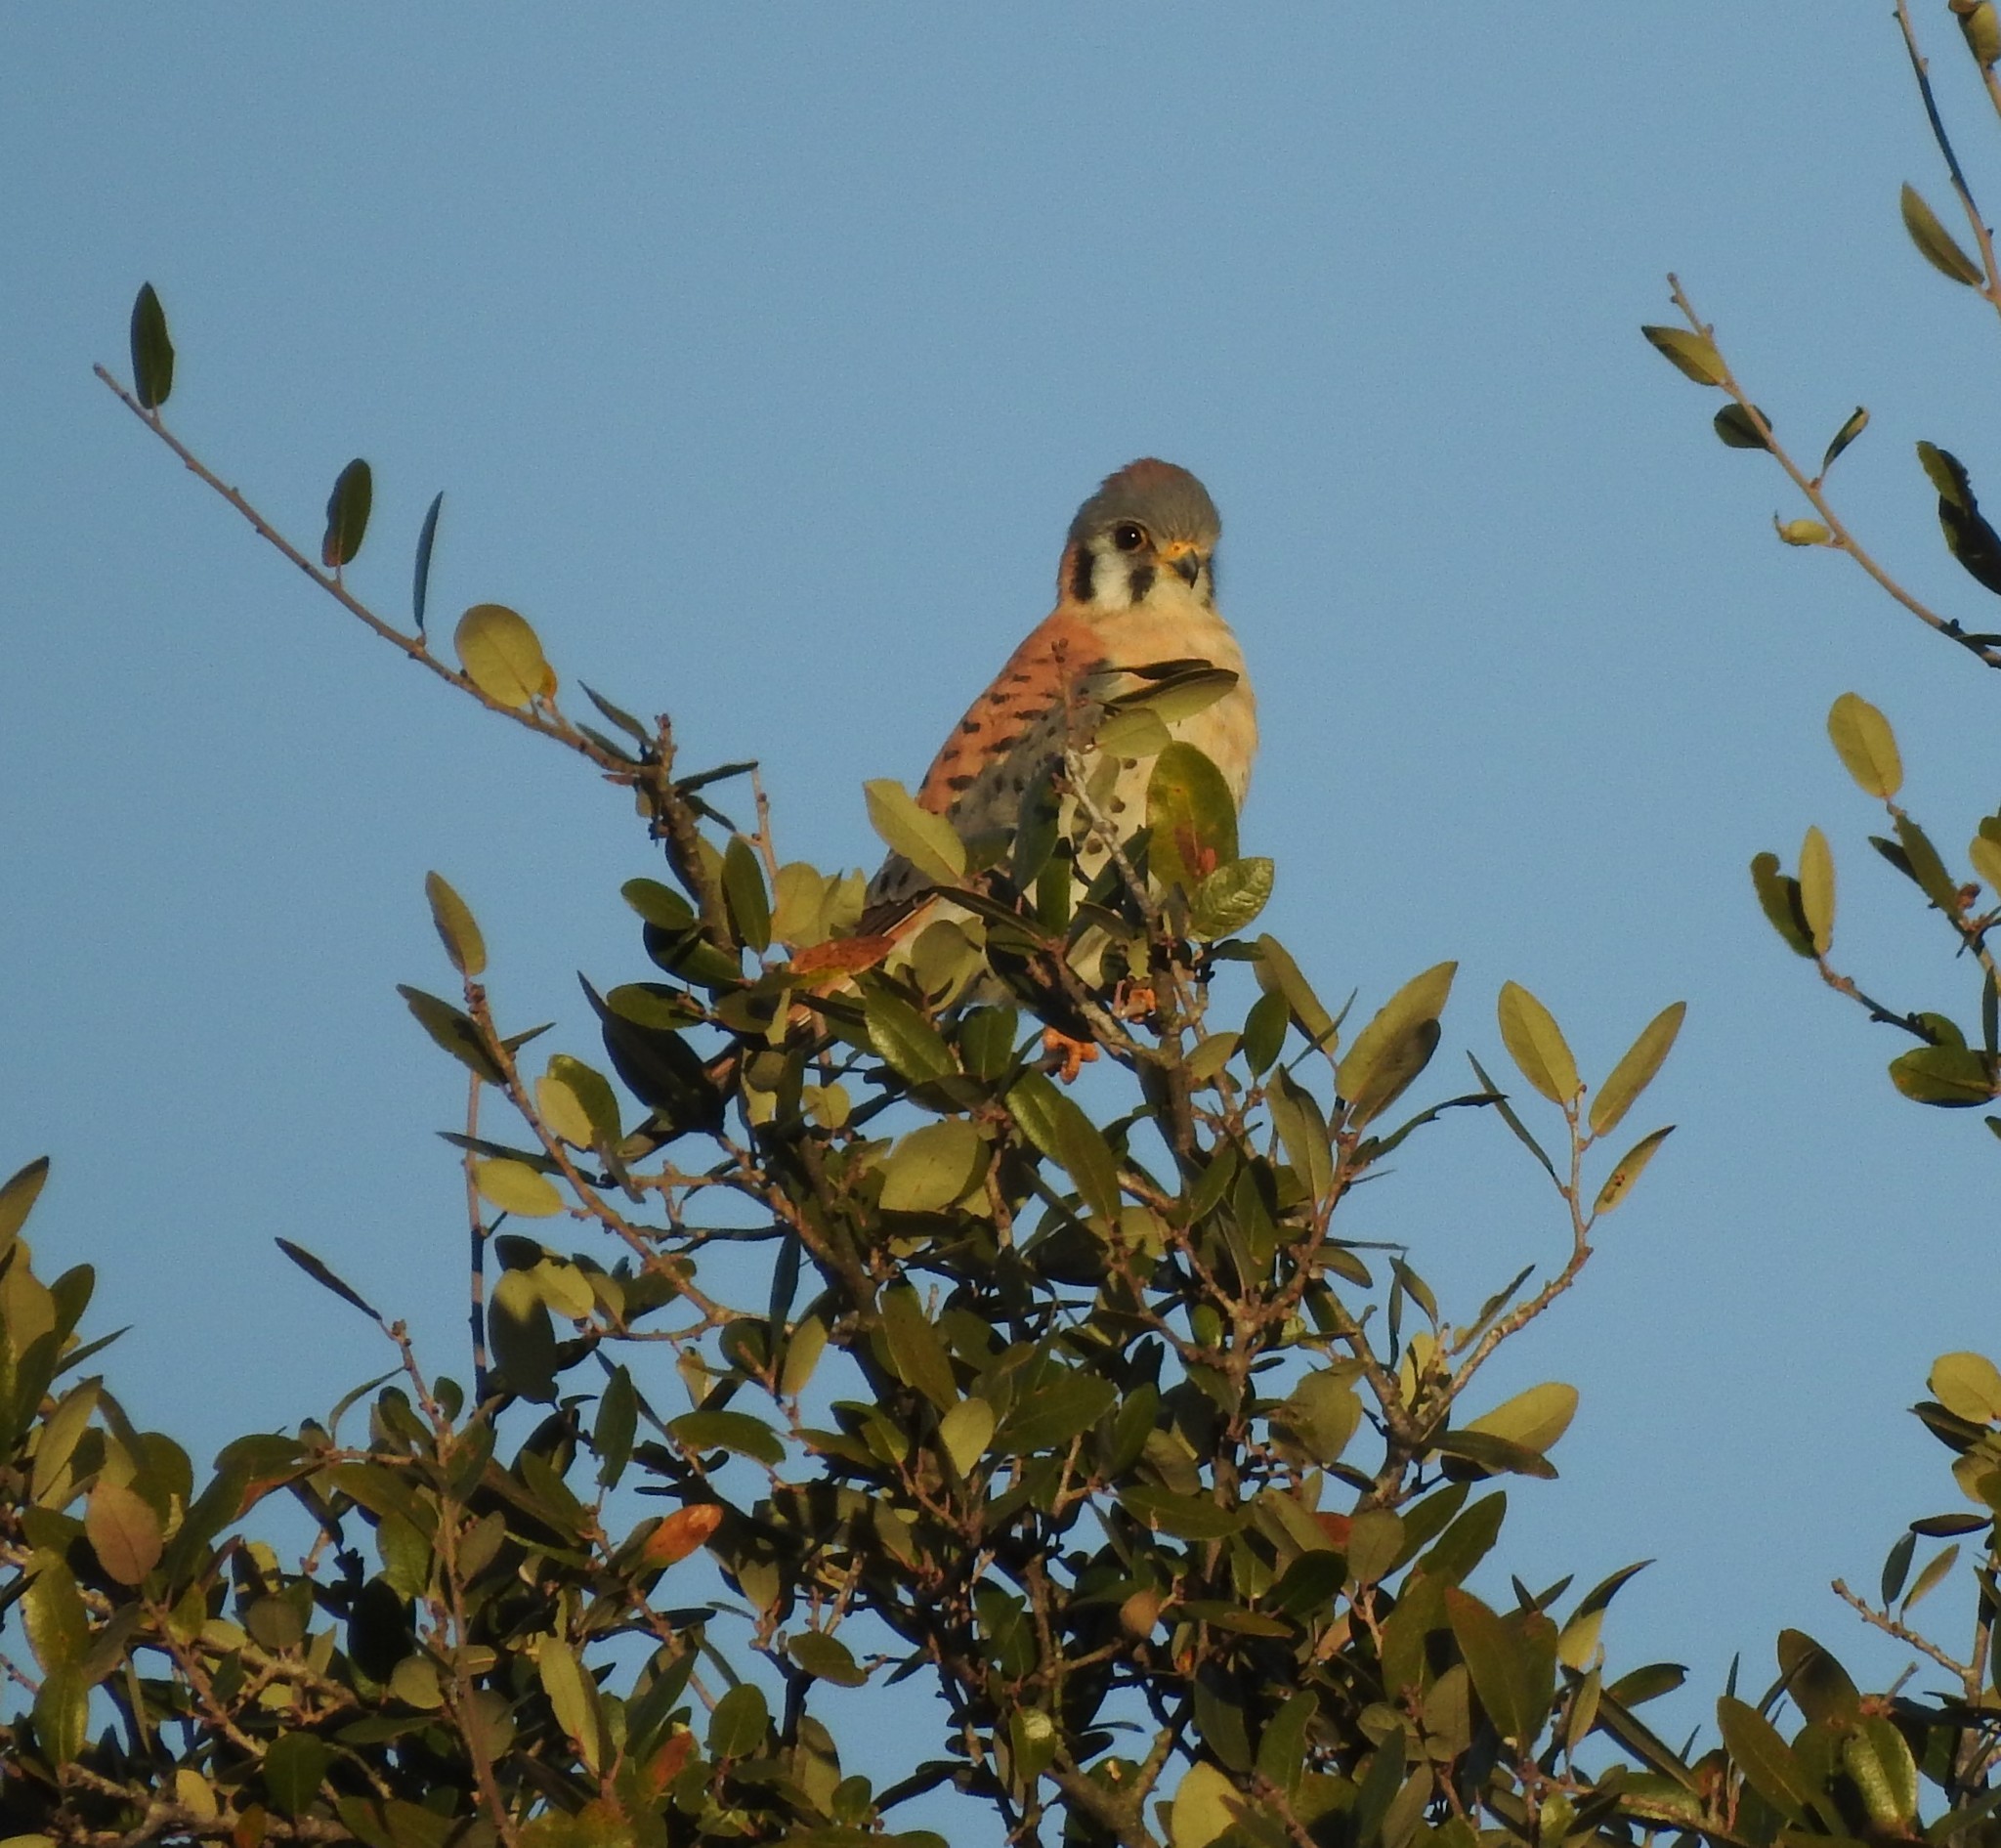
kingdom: Animalia
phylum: Chordata
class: Aves
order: Falconiformes
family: Falconidae
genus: Falco
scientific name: Falco sparverius
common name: American kestrel
